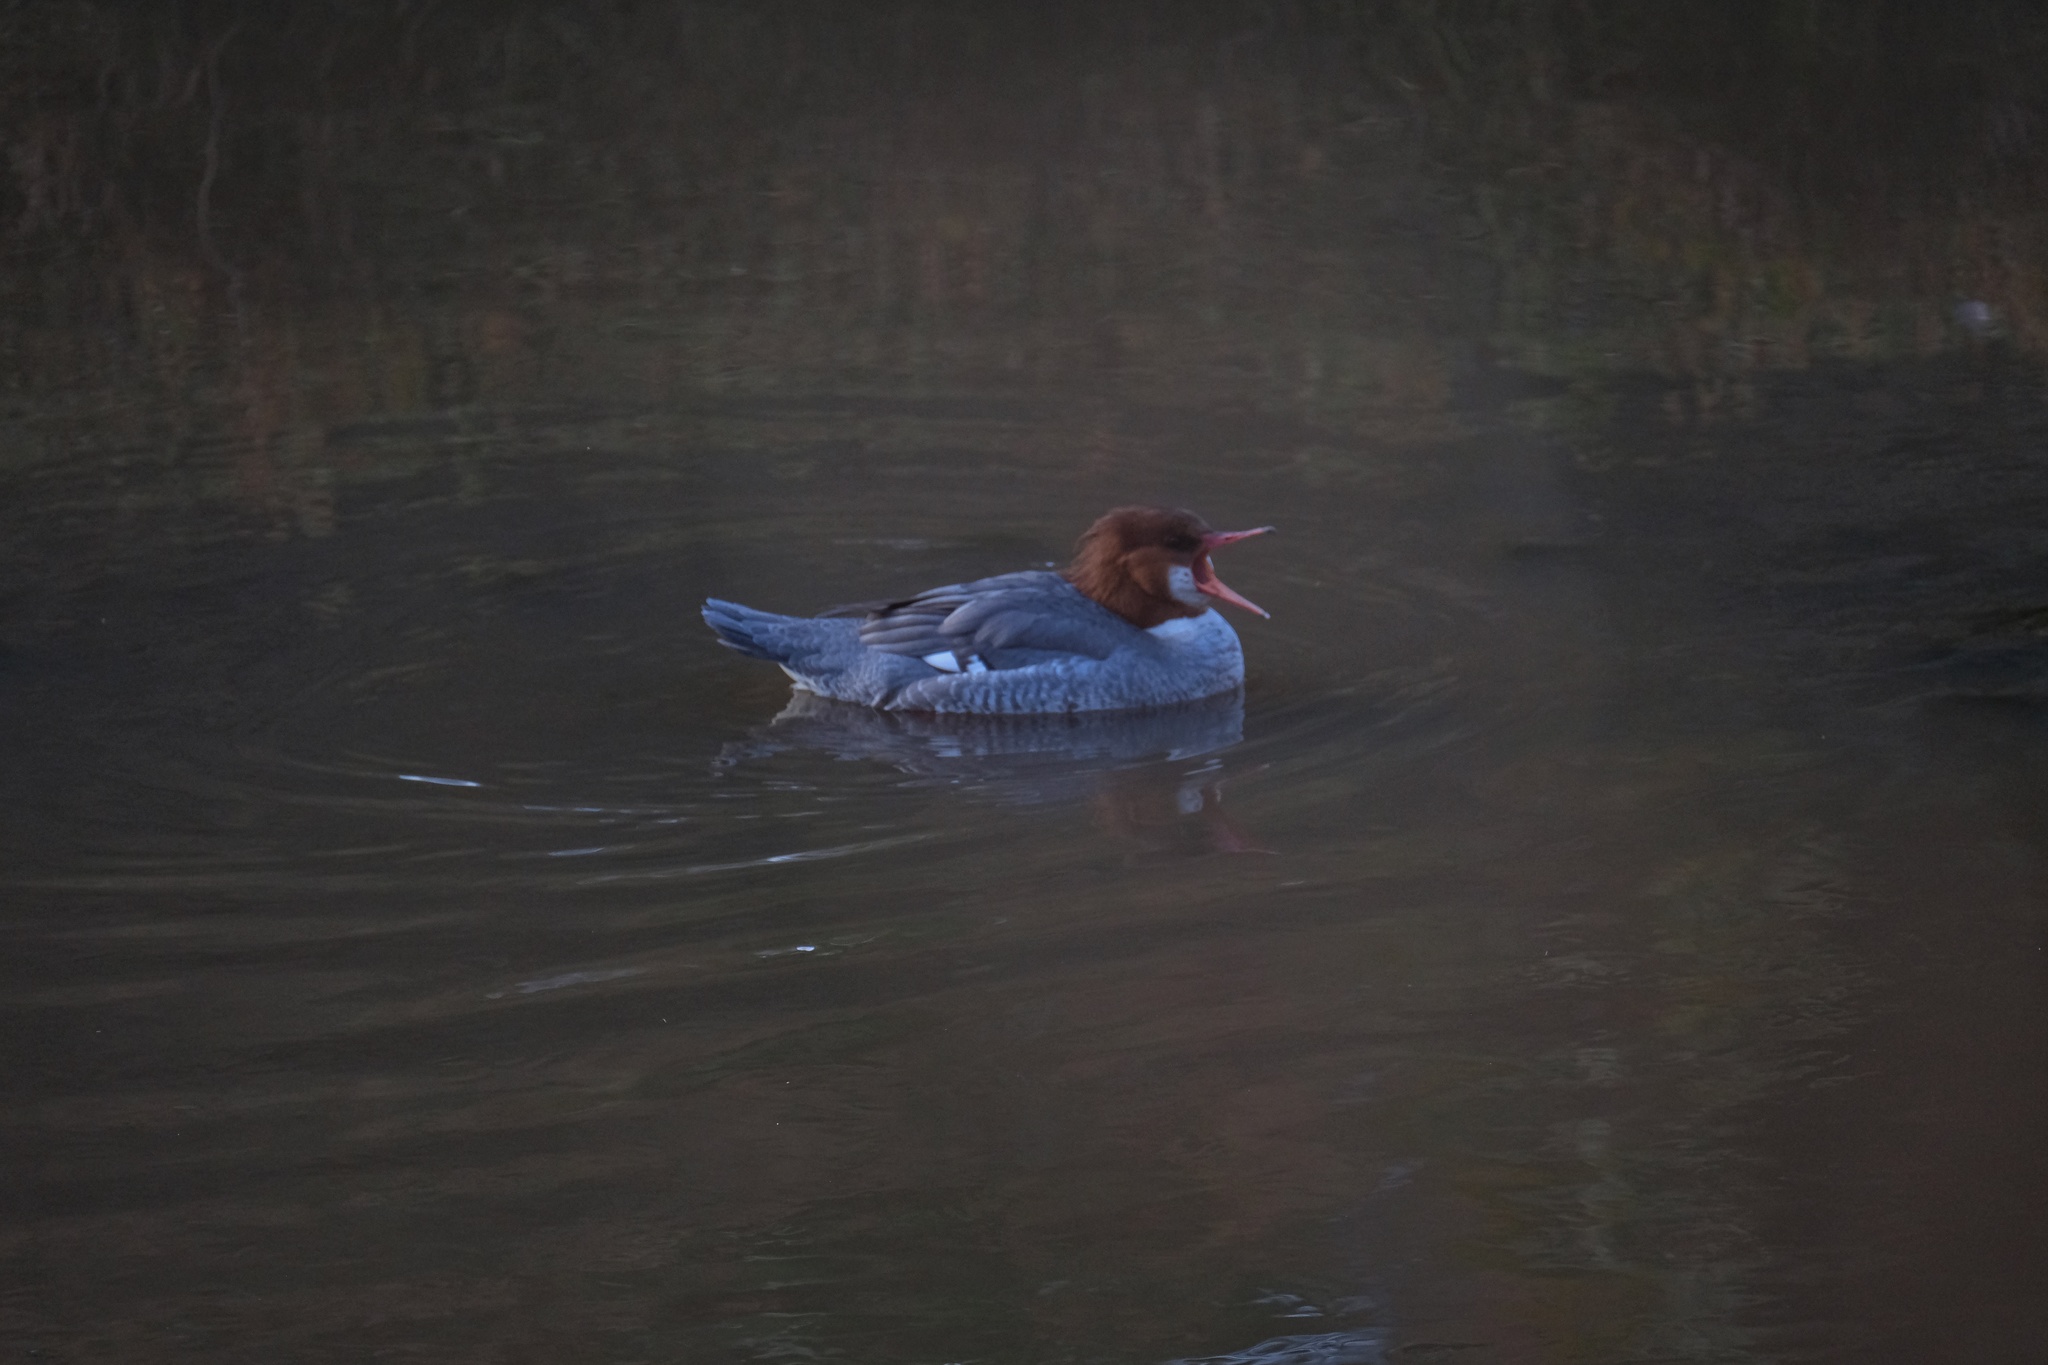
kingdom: Animalia
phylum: Chordata
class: Aves
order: Anseriformes
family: Anatidae
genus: Mergus
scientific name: Mergus merganser
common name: Common merganser
